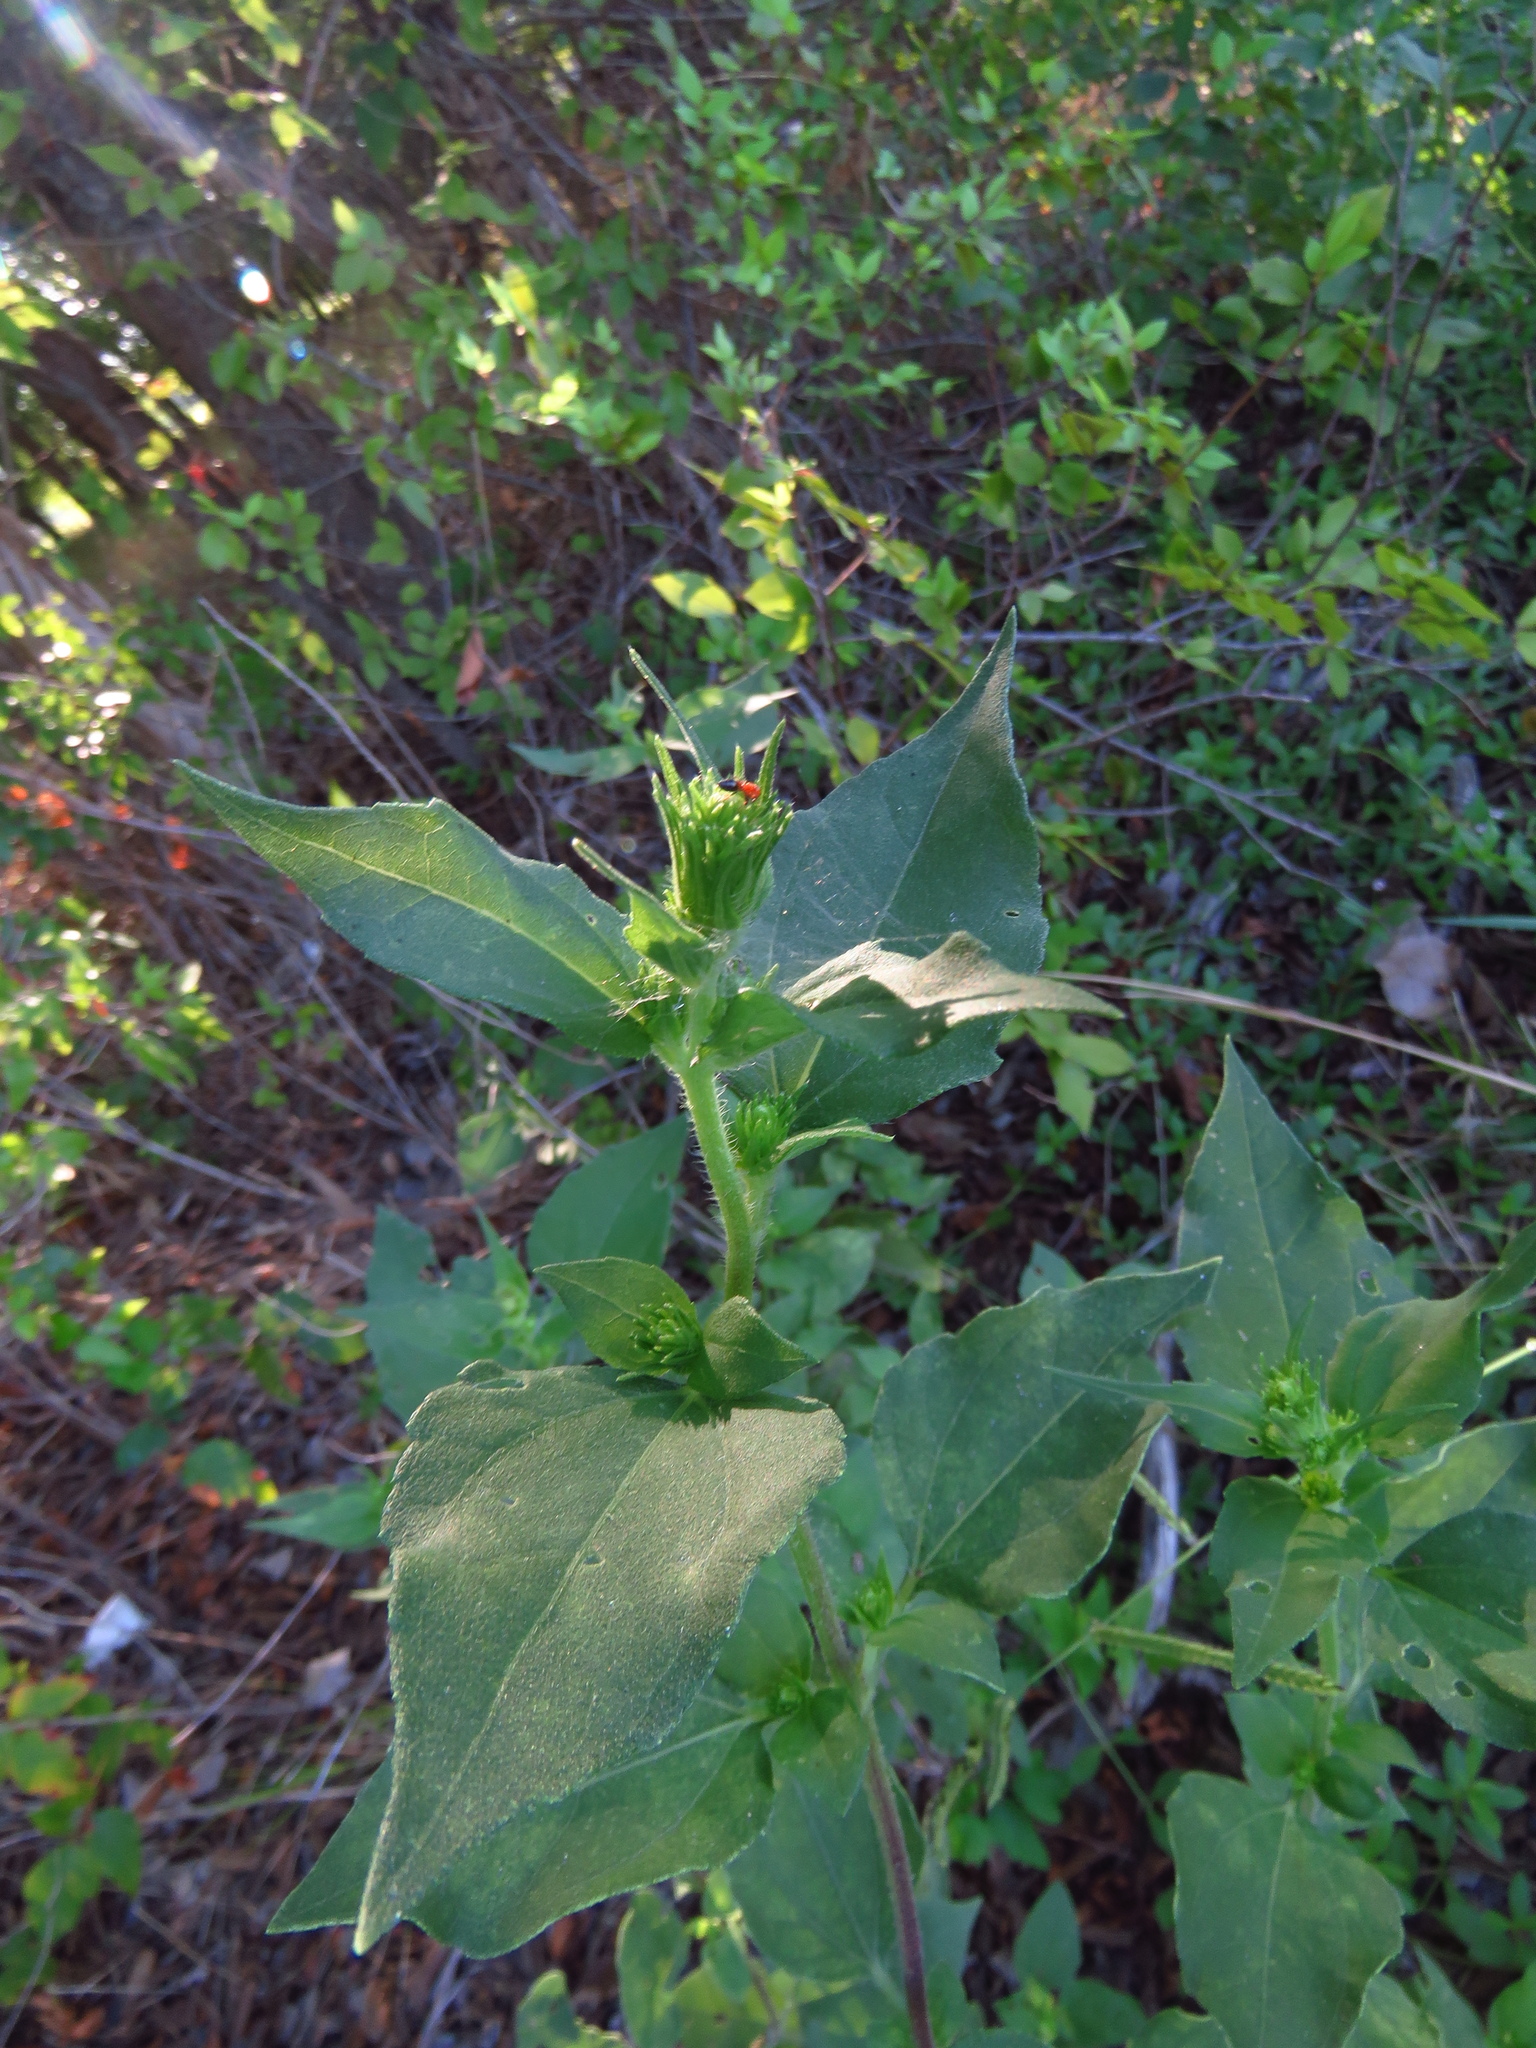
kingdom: Plantae
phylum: Tracheophyta
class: Magnoliopsida
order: Asterales
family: Asteraceae
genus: Iva
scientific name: Iva annua
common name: Marsh-elder
